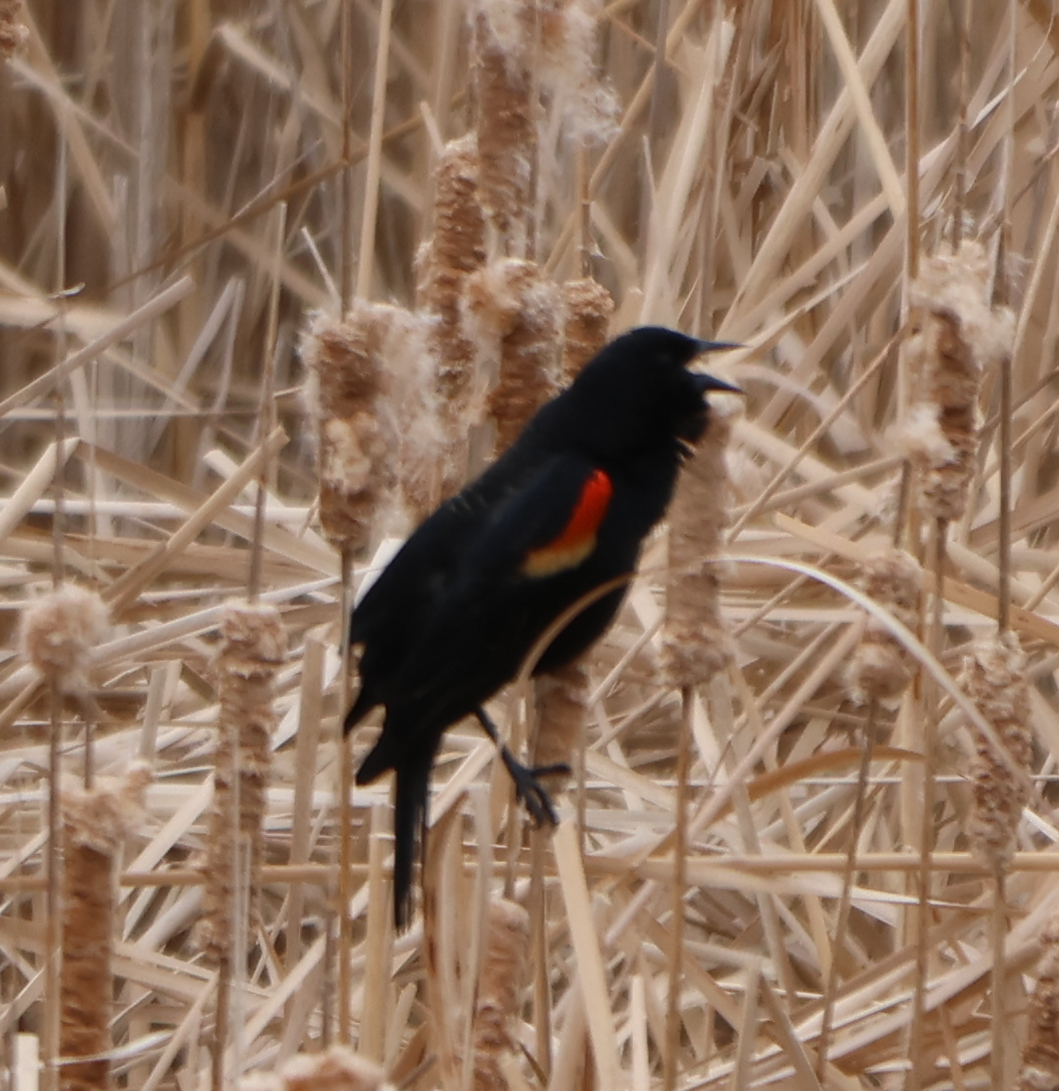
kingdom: Animalia
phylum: Chordata
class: Aves
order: Passeriformes
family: Icteridae
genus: Agelaius
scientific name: Agelaius phoeniceus
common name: Red-winged blackbird
